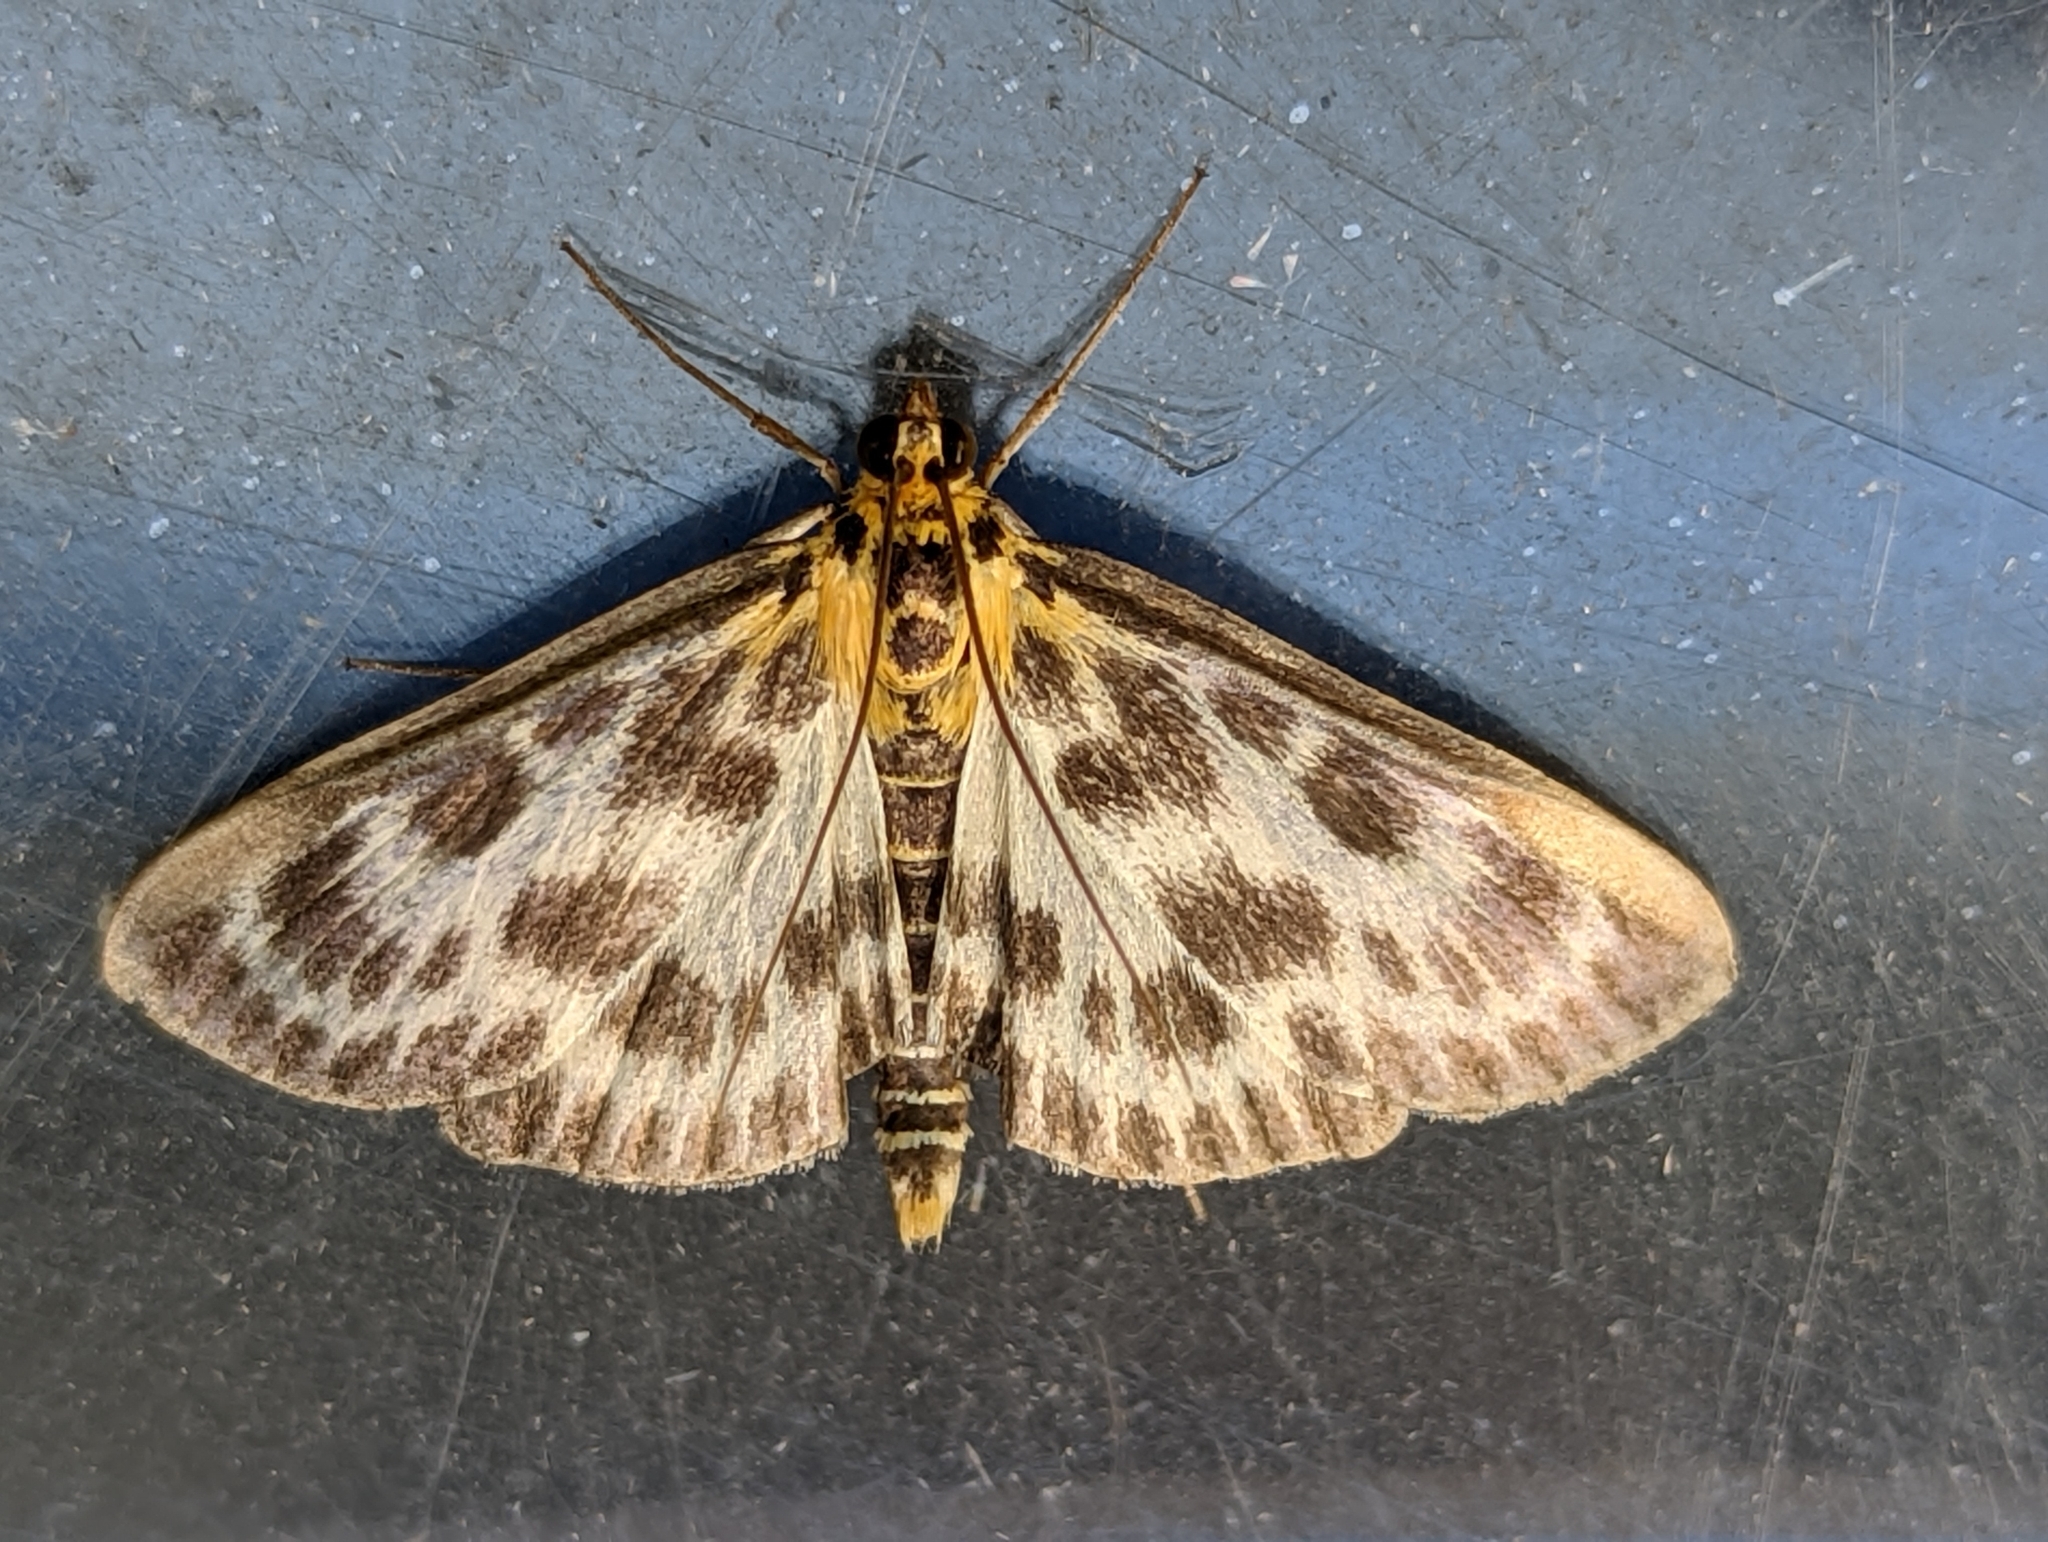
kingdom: Animalia
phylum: Arthropoda
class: Insecta
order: Lepidoptera
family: Crambidae
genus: Anania
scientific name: Anania hortulata
